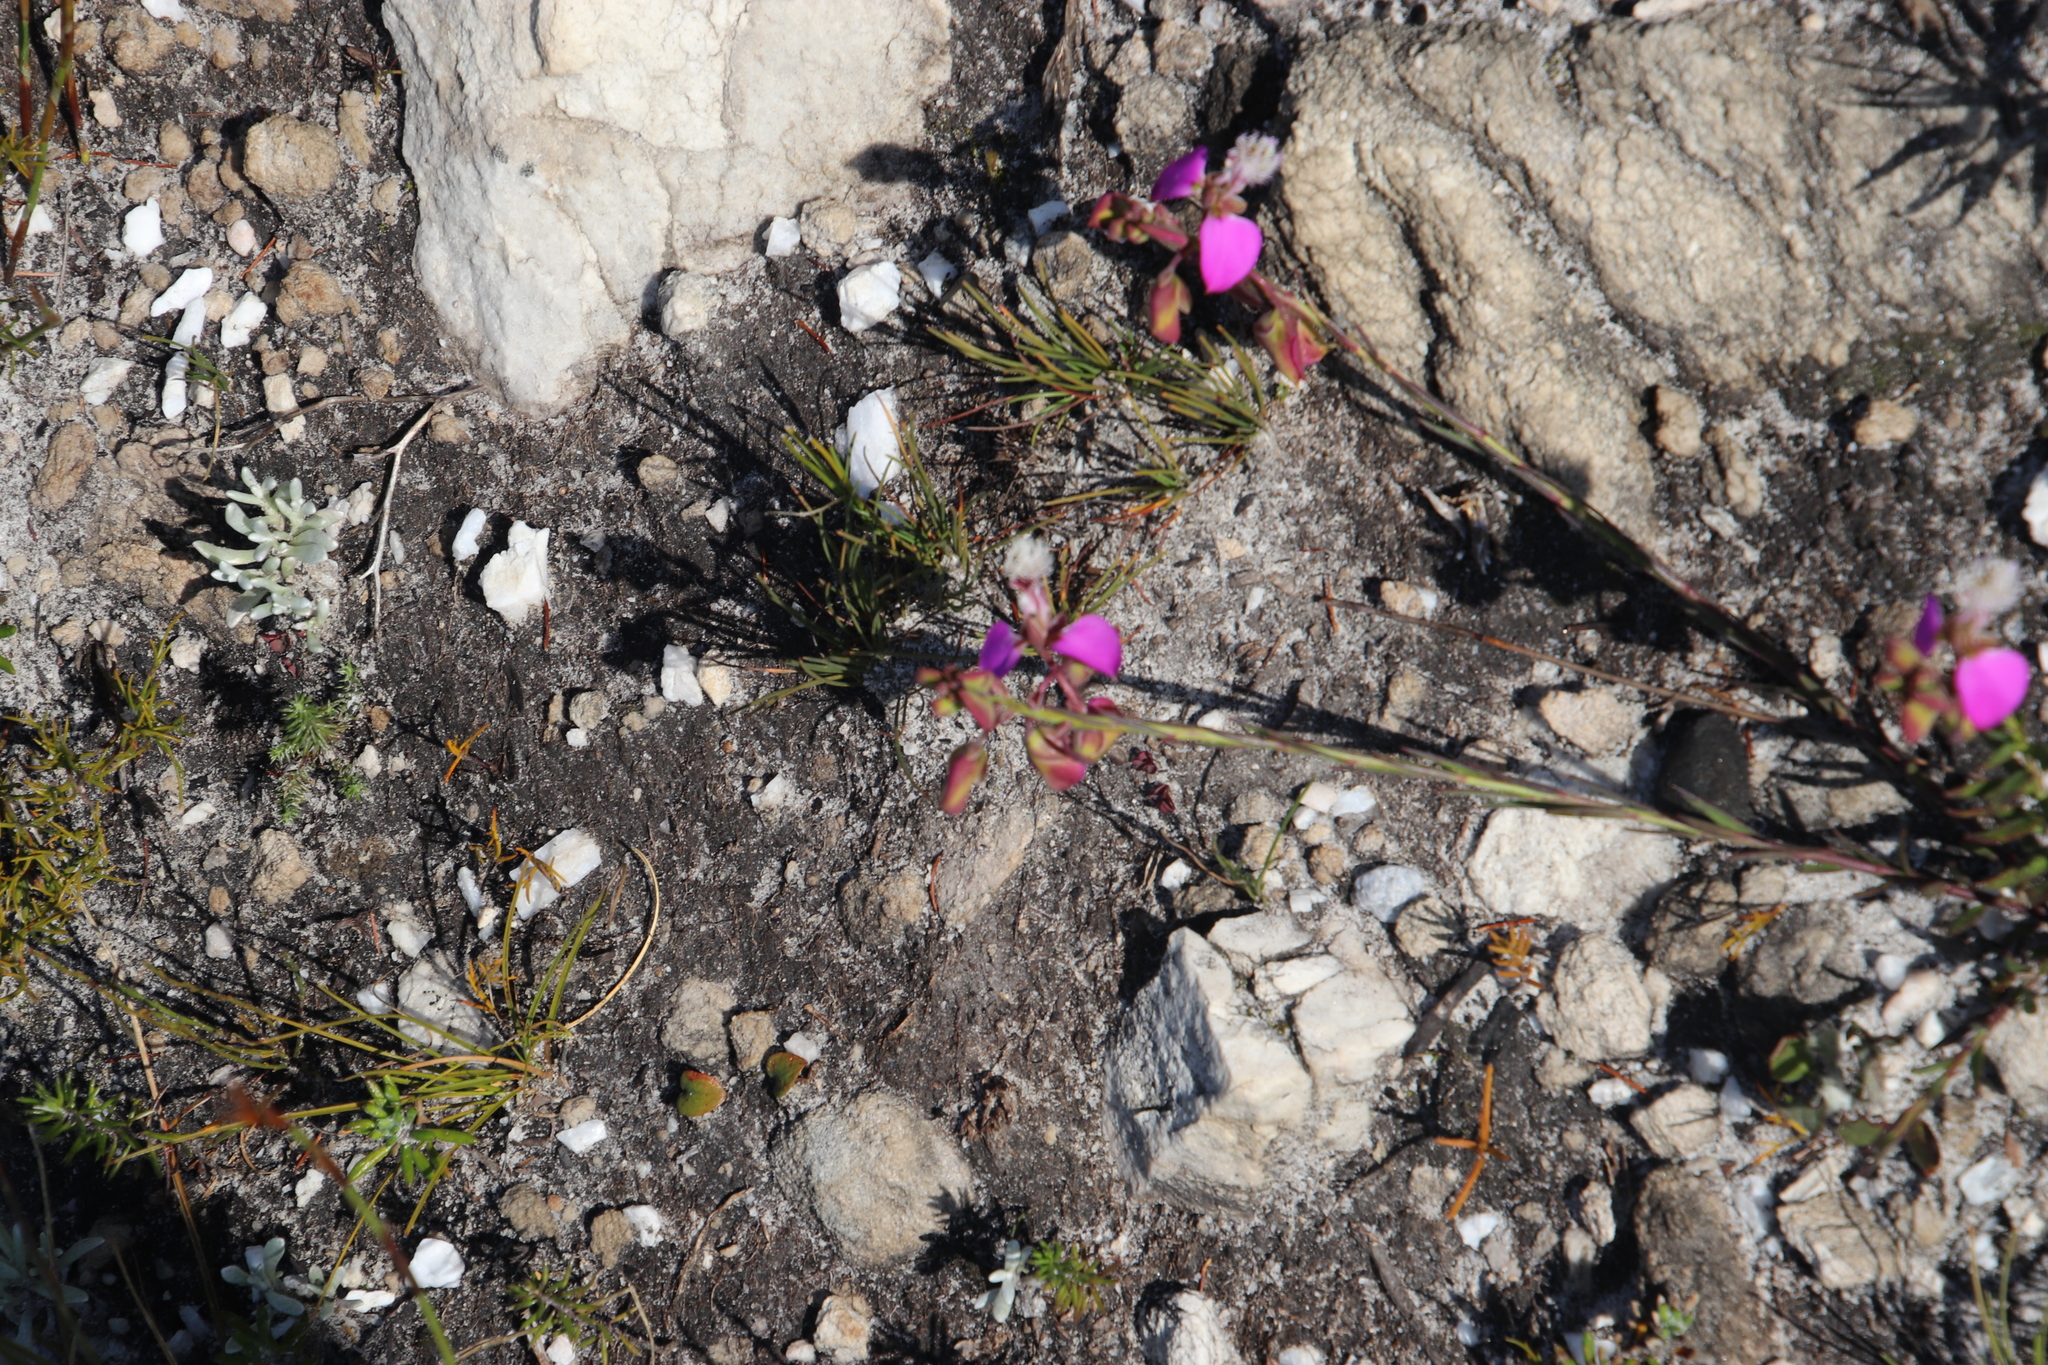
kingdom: Plantae
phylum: Tracheophyta
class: Magnoliopsida
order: Fabales
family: Polygalaceae
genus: Polygala
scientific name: Polygala bracteolata
